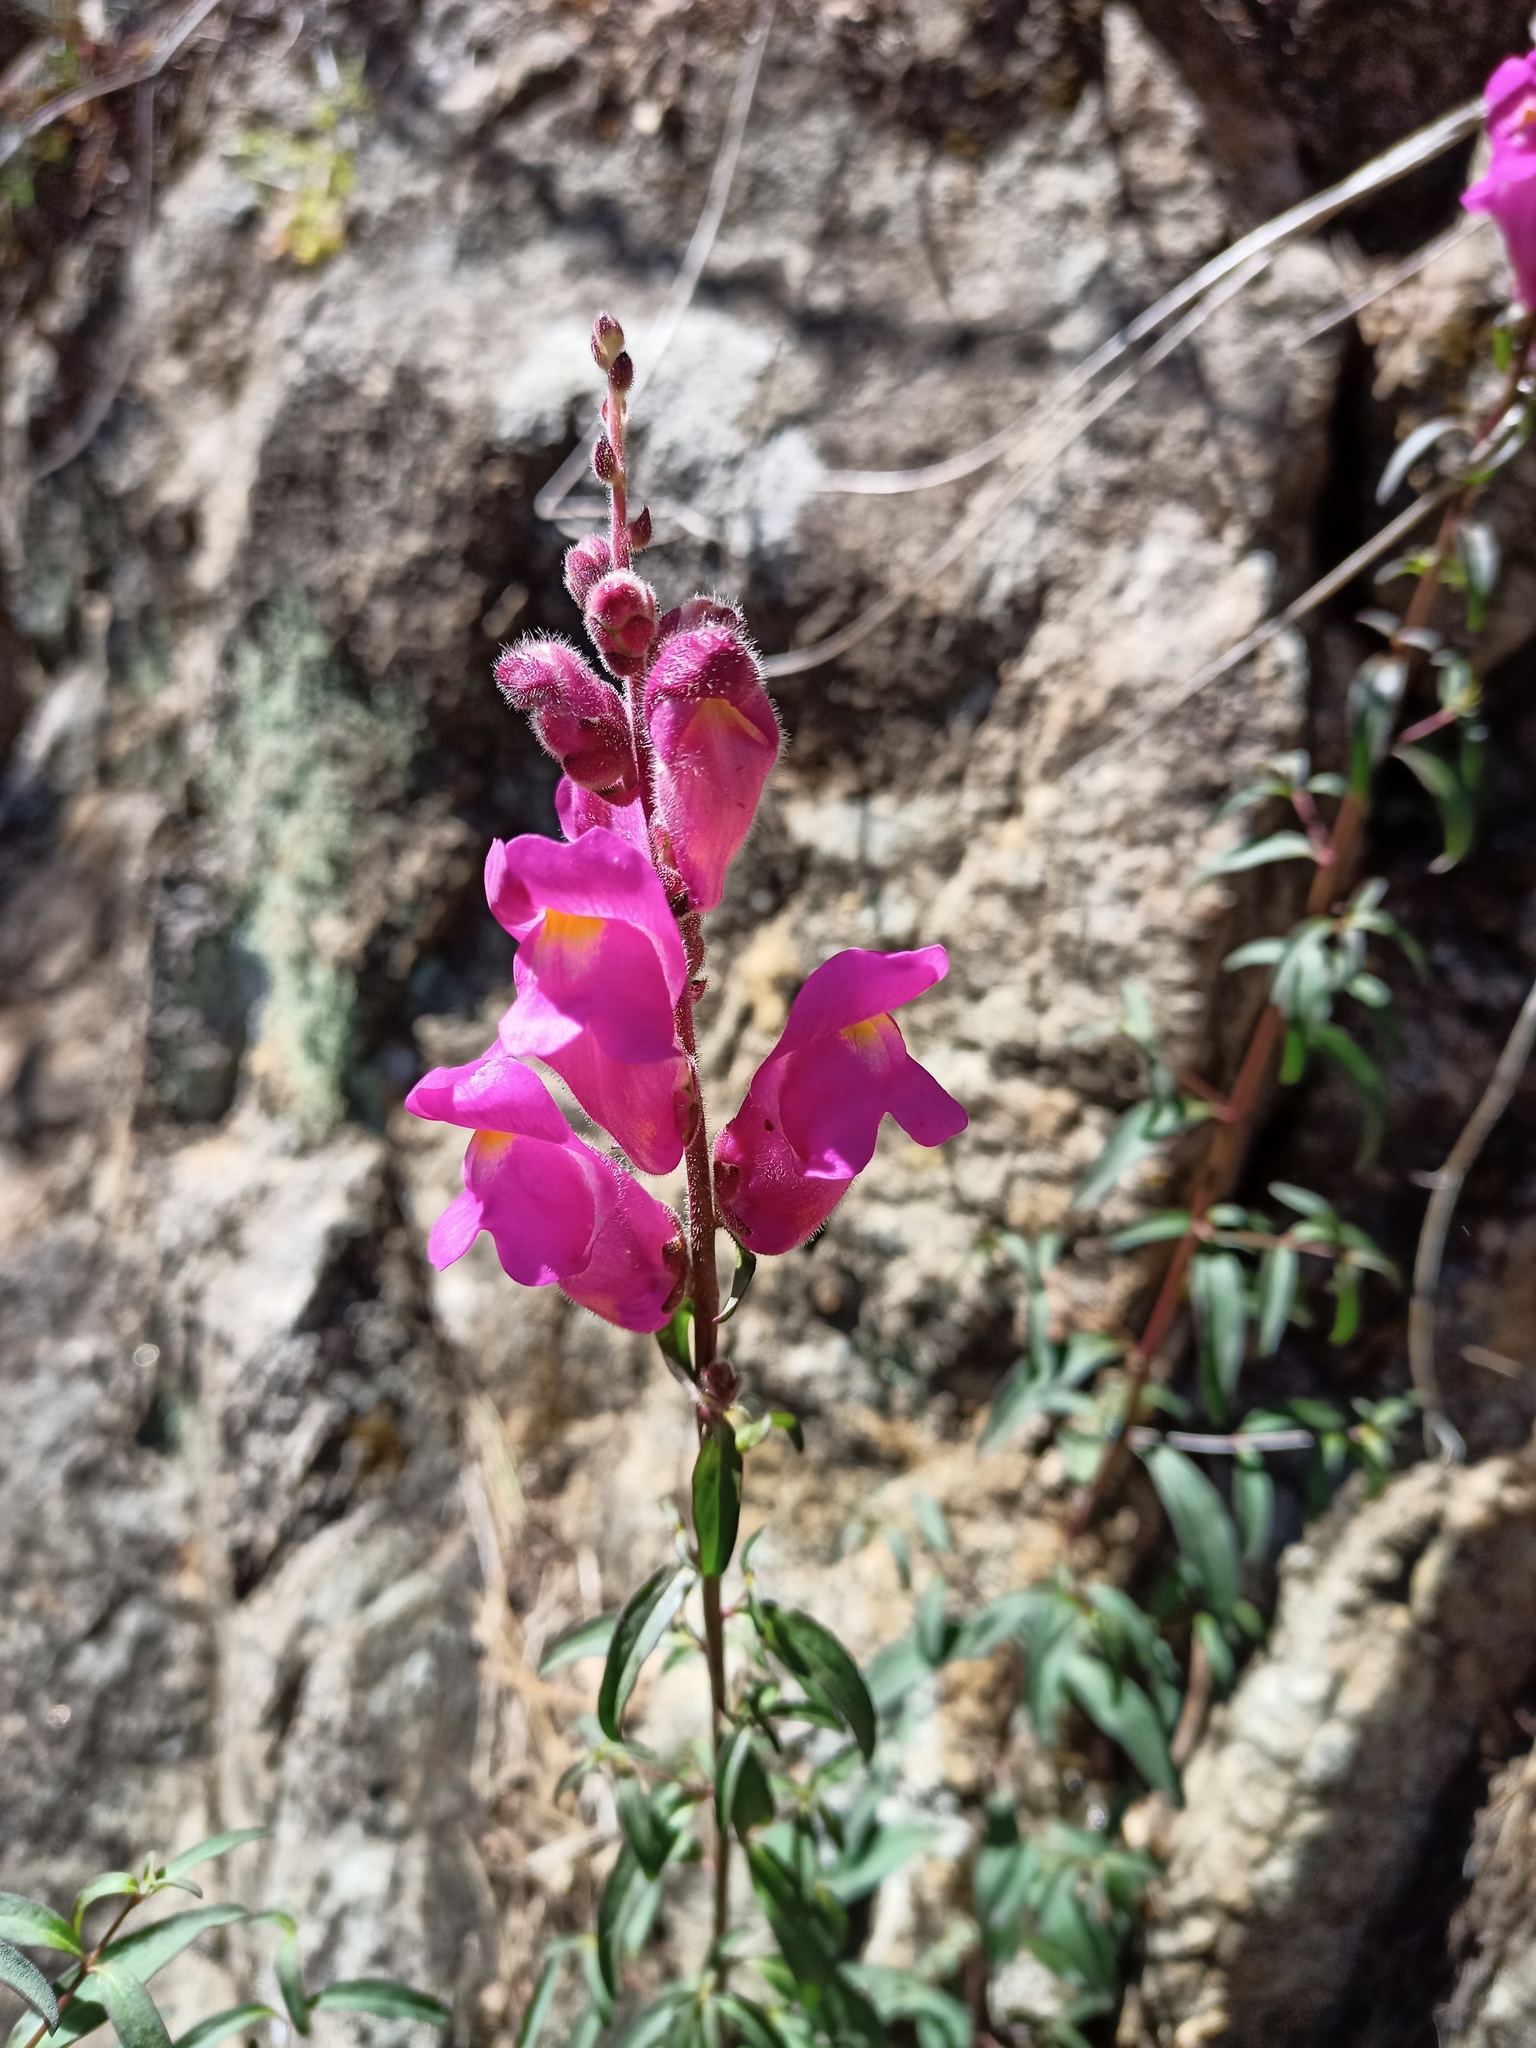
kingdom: Plantae
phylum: Tracheophyta
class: Magnoliopsida
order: Lamiales
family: Plantaginaceae
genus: Antirrhinum
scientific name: Antirrhinum majus
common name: Snapdragon
